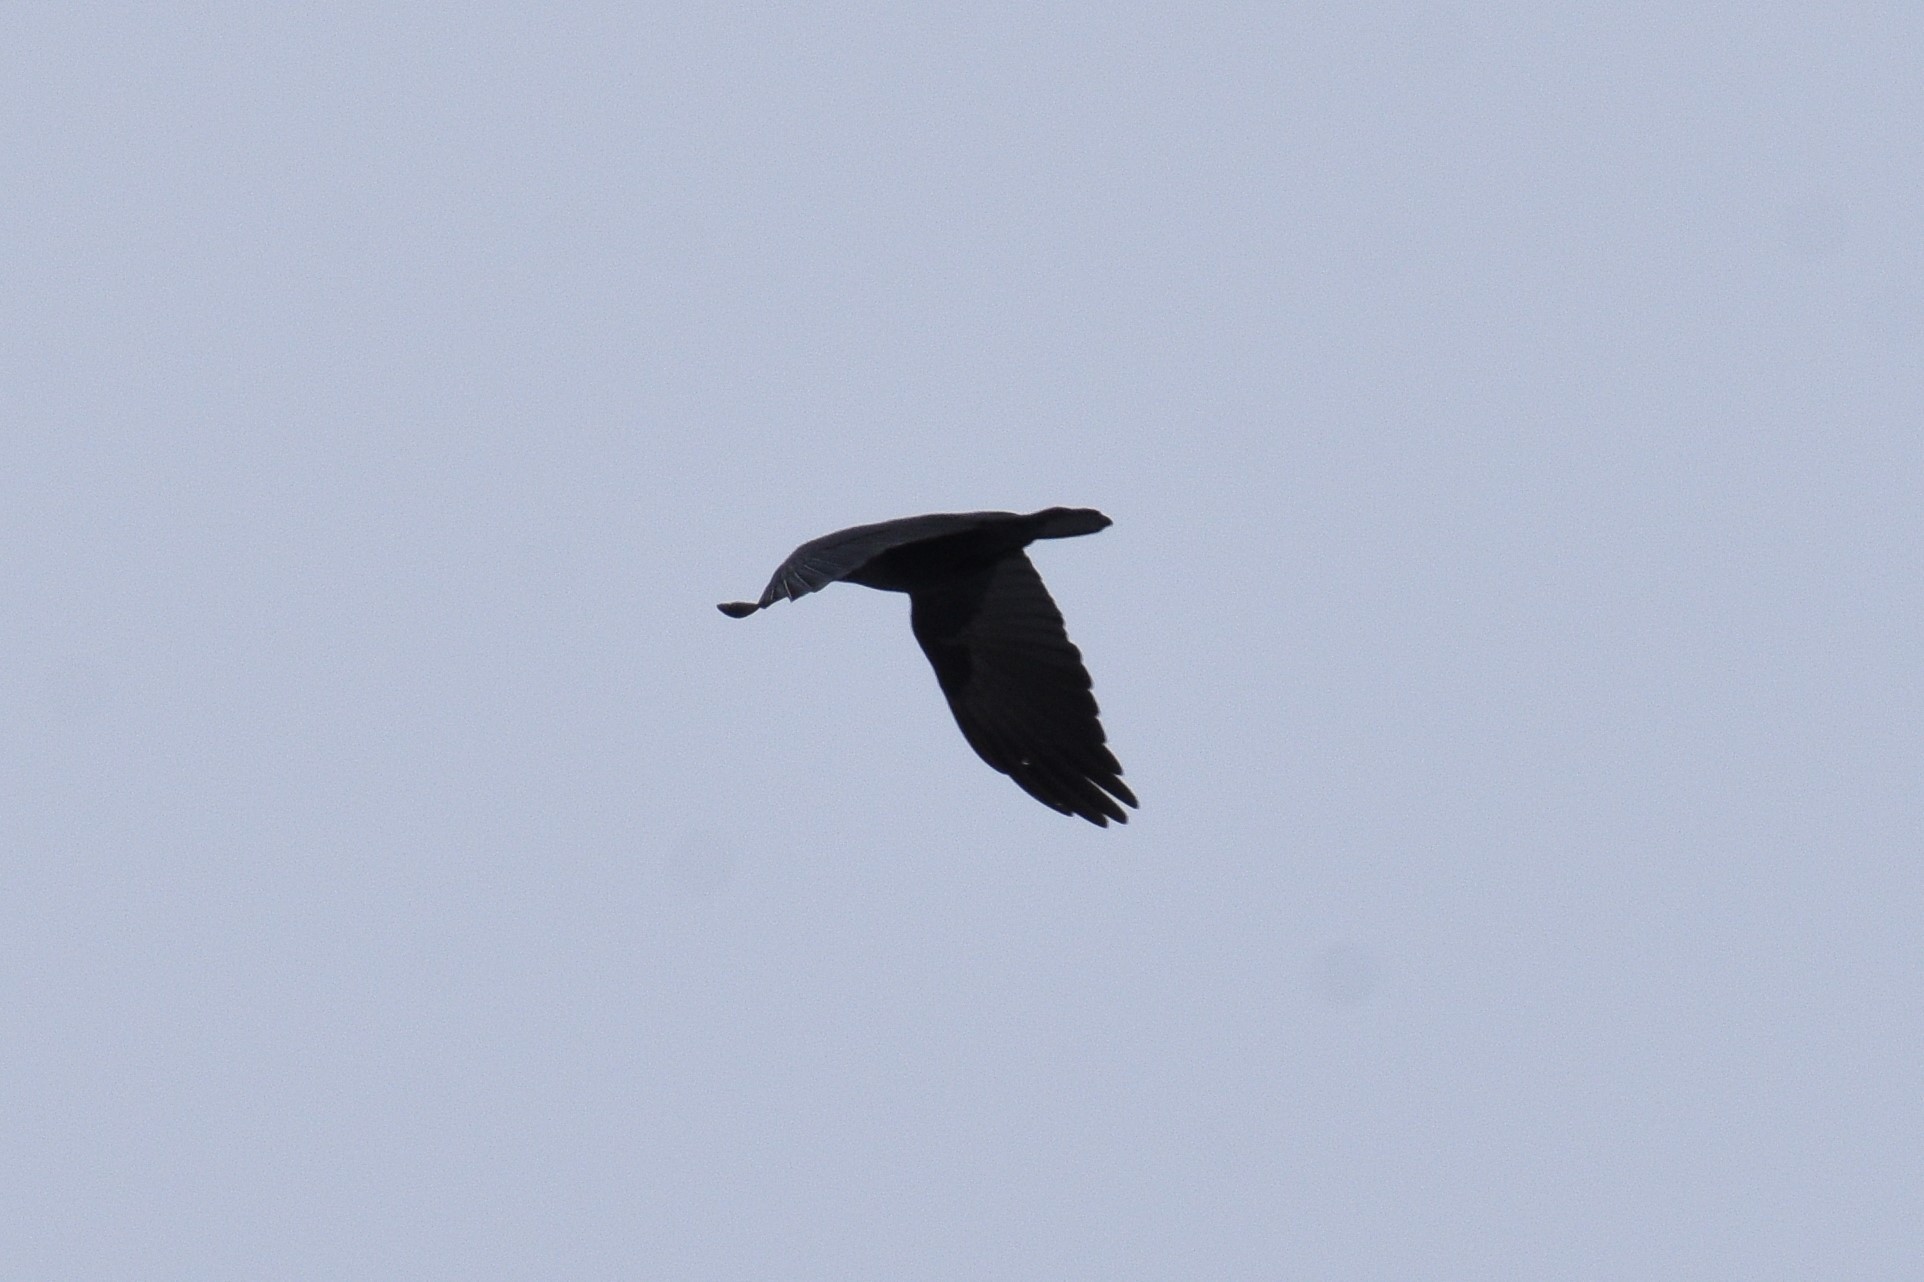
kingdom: Animalia
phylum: Chordata
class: Aves
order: Passeriformes
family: Corvidae
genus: Corvus
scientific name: Corvus brachyrhynchos
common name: American crow
